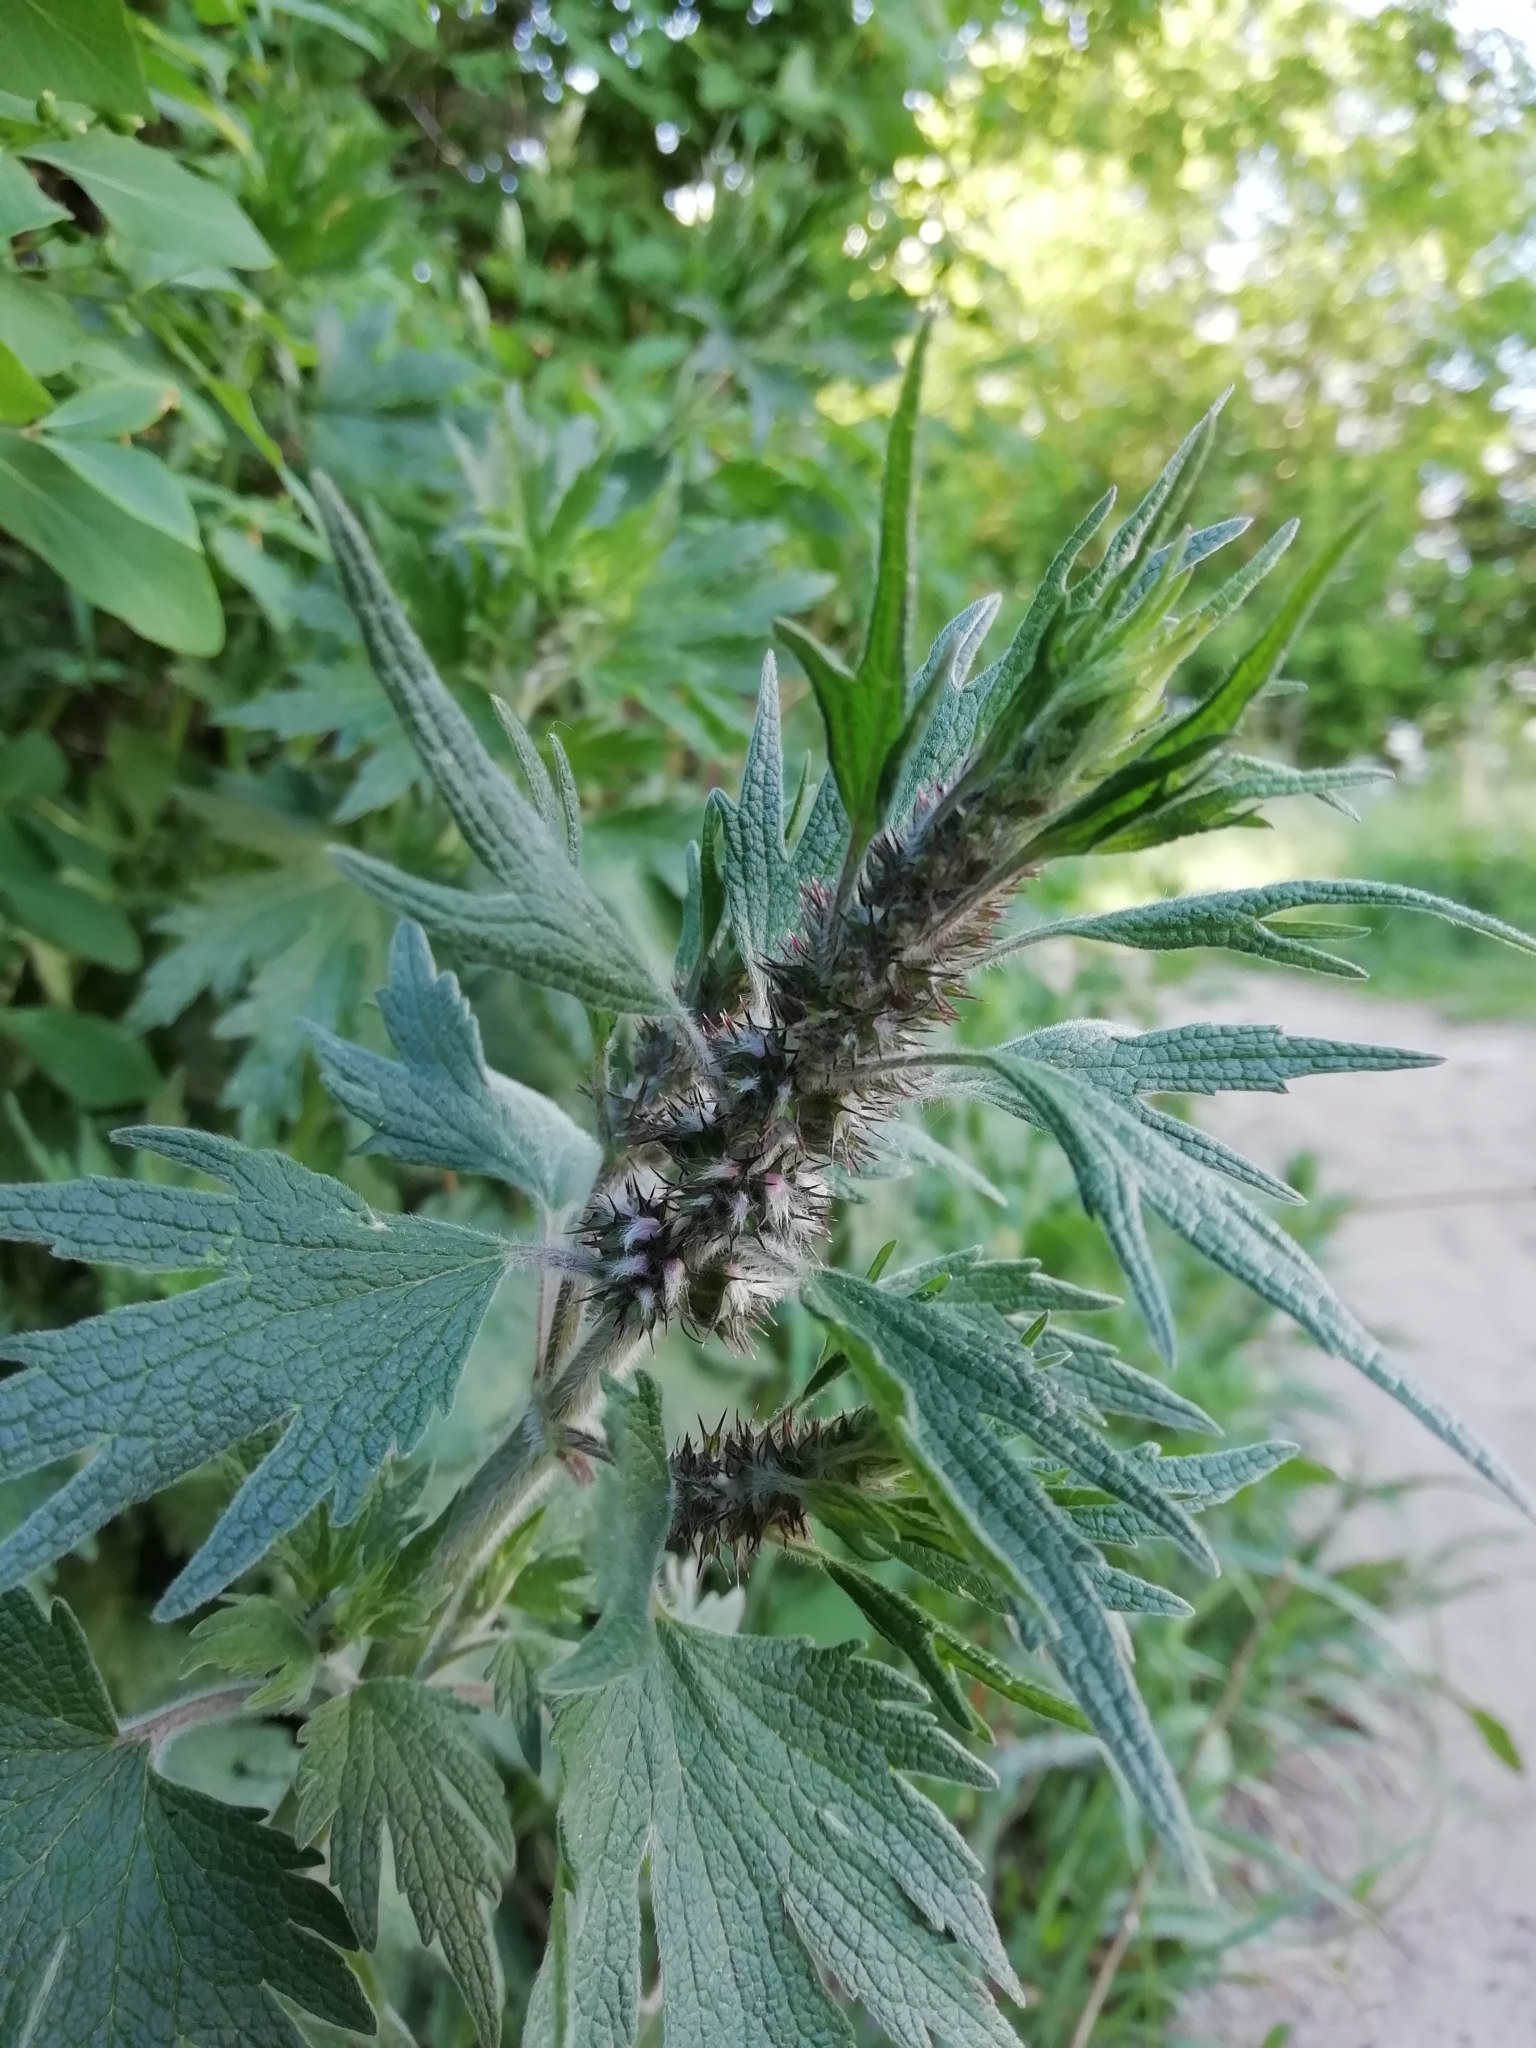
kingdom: Plantae
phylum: Tracheophyta
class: Magnoliopsida
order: Lamiales
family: Lamiaceae
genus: Leonurus
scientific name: Leonurus quinquelobatus
